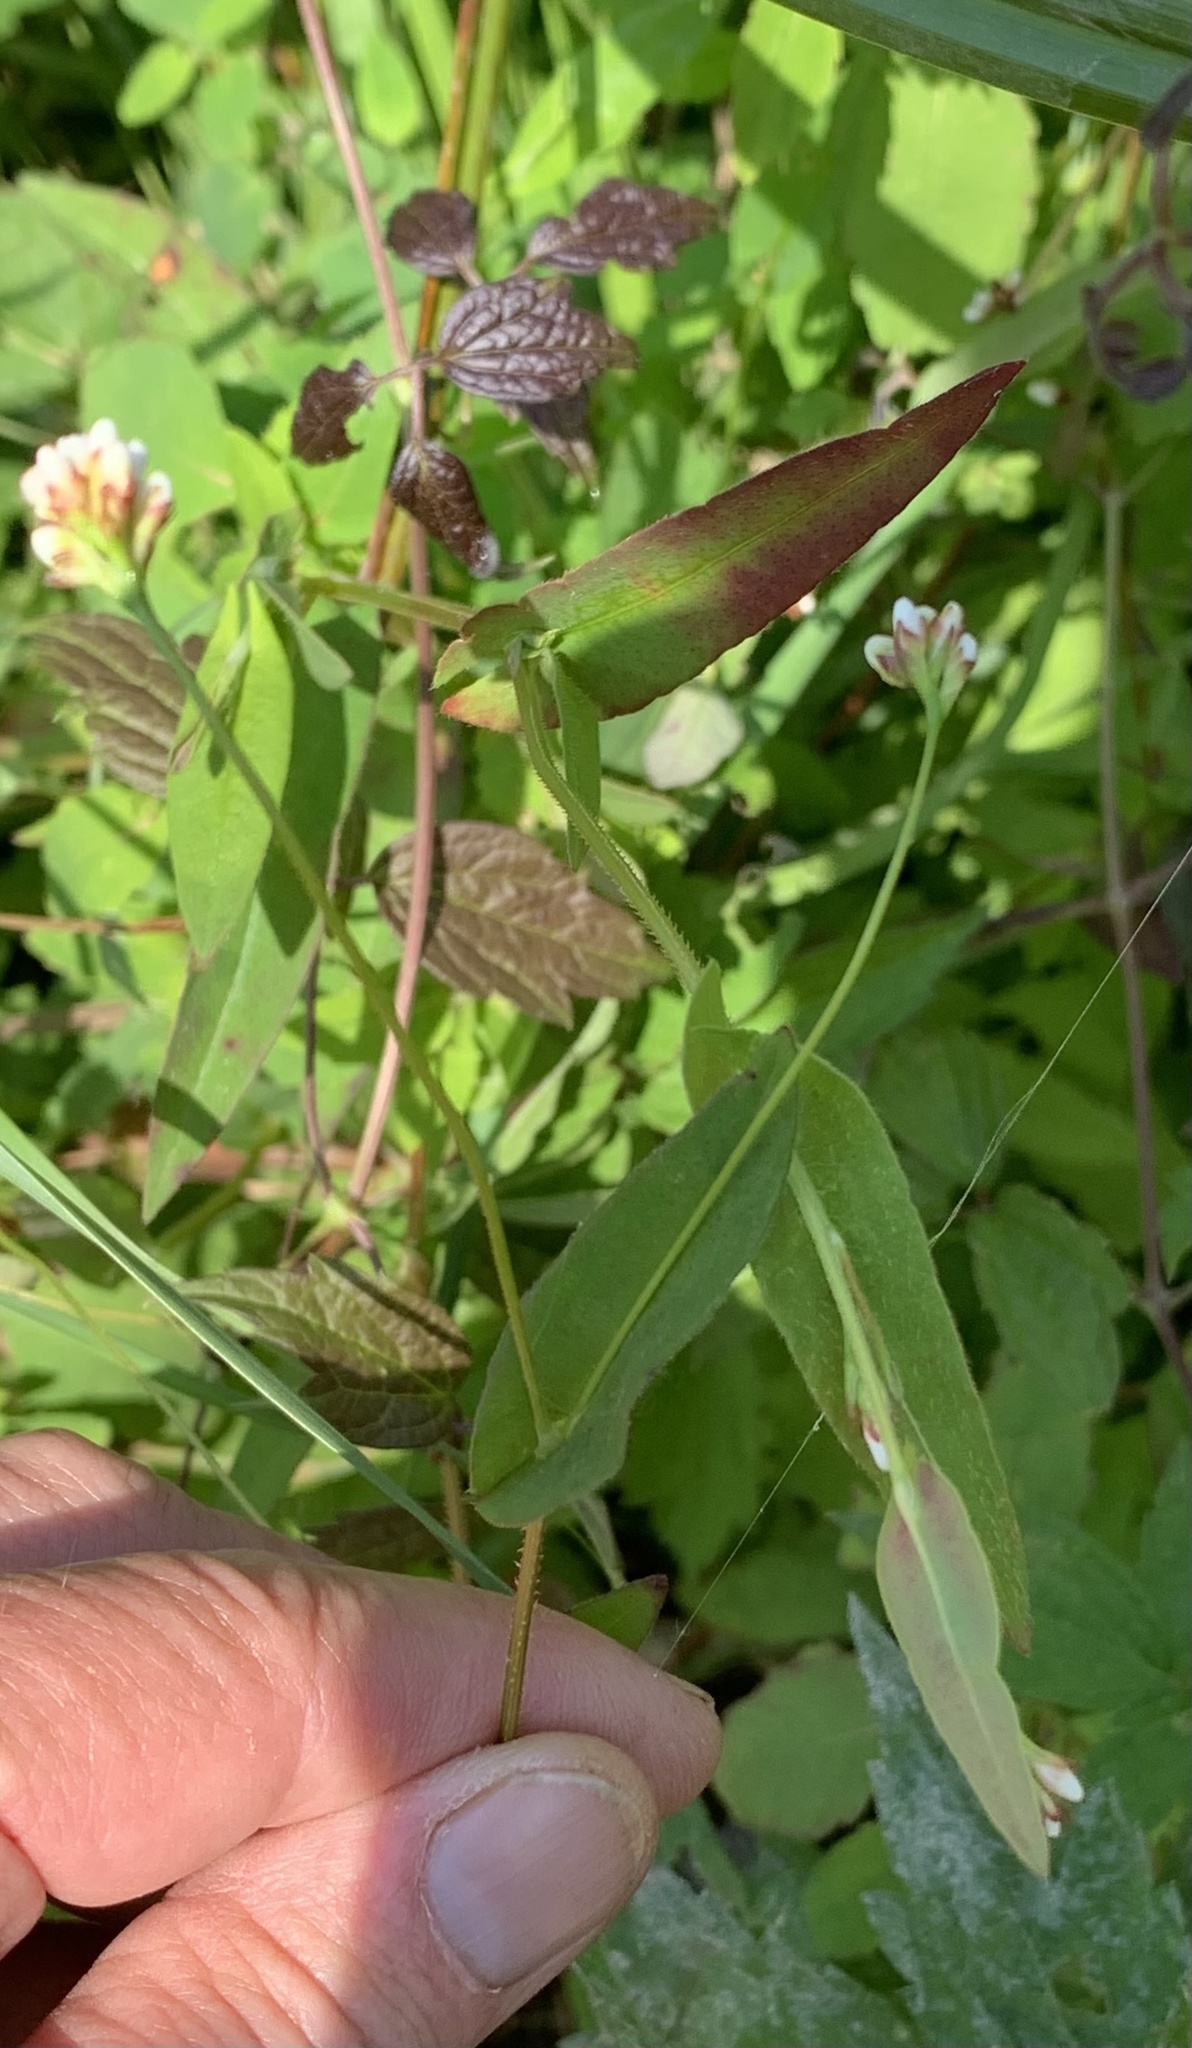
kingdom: Plantae
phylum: Tracheophyta
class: Magnoliopsida
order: Caryophyllales
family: Polygonaceae
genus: Persicaria
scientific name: Persicaria sagittata
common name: American tearthumb
